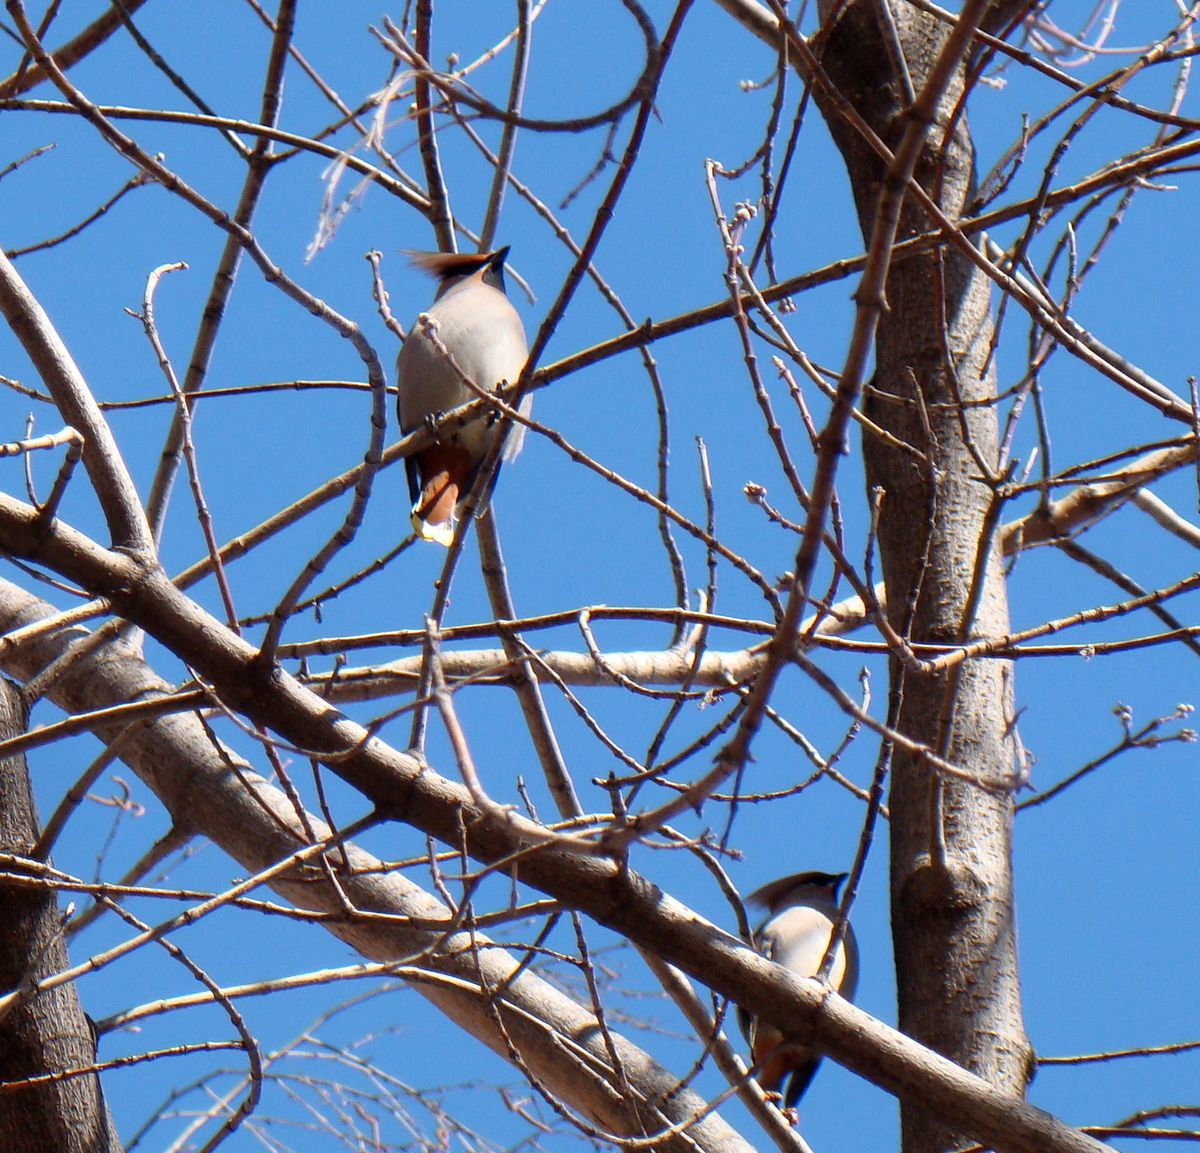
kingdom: Animalia
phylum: Chordata
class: Aves
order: Passeriformes
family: Bombycillidae
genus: Bombycilla
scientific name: Bombycilla garrulus
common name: Bohemian waxwing
